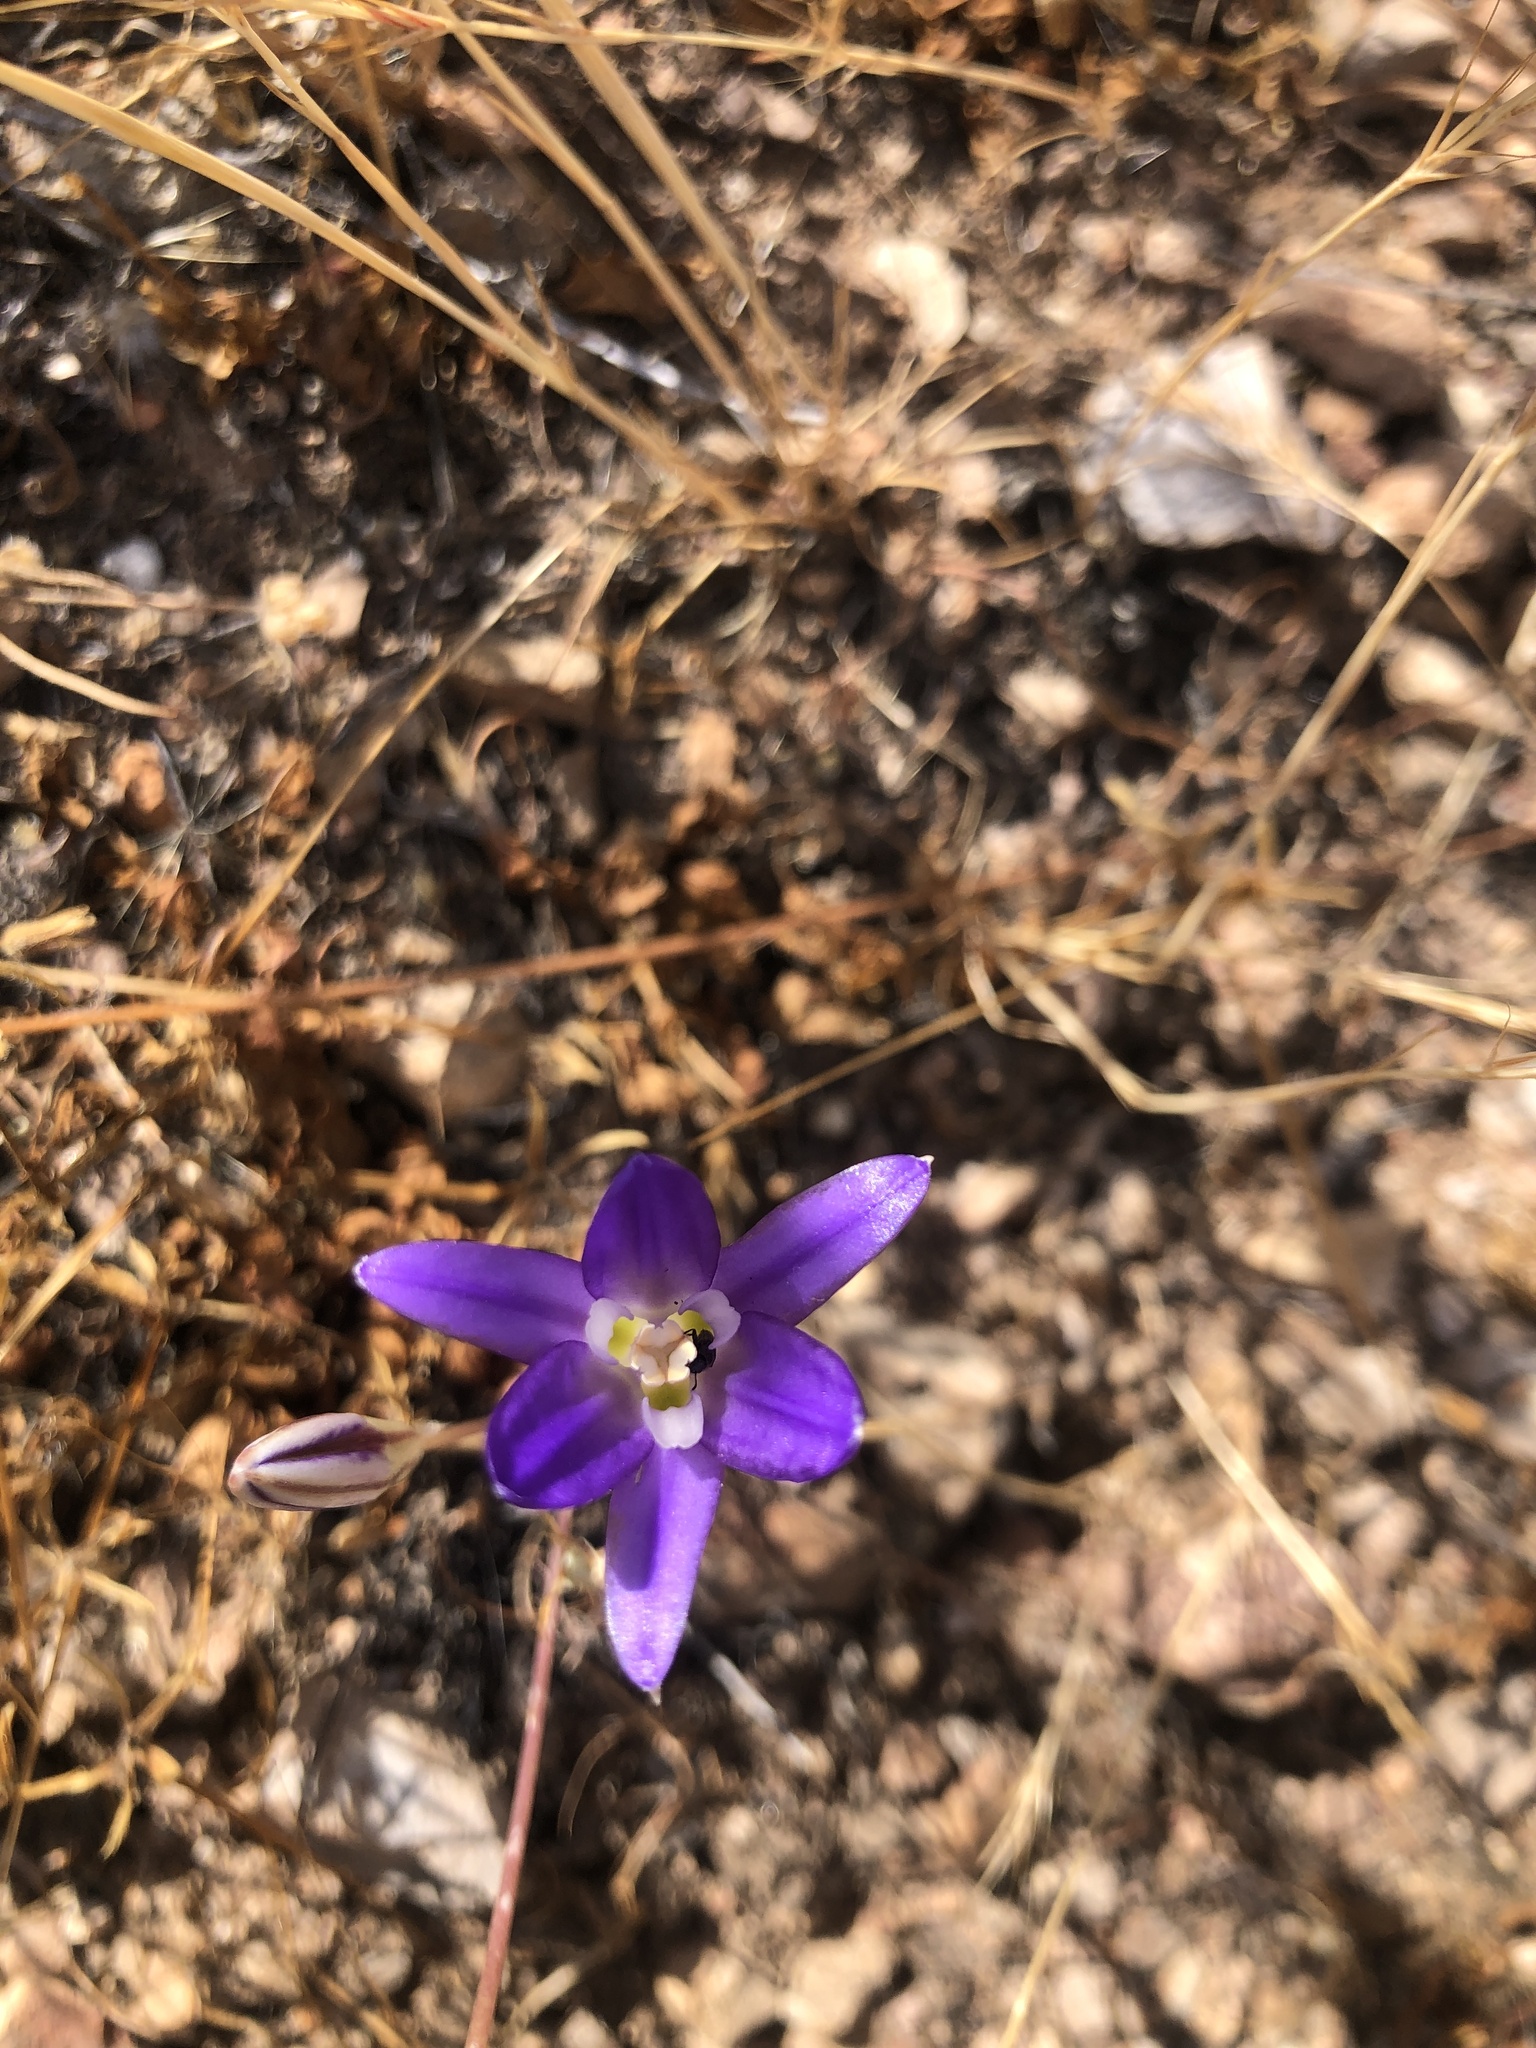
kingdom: Plantae
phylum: Tracheophyta
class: Liliopsida
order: Asparagales
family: Asparagaceae
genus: Brodiaea
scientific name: Brodiaea elegans
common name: Elegant cluster-lily
